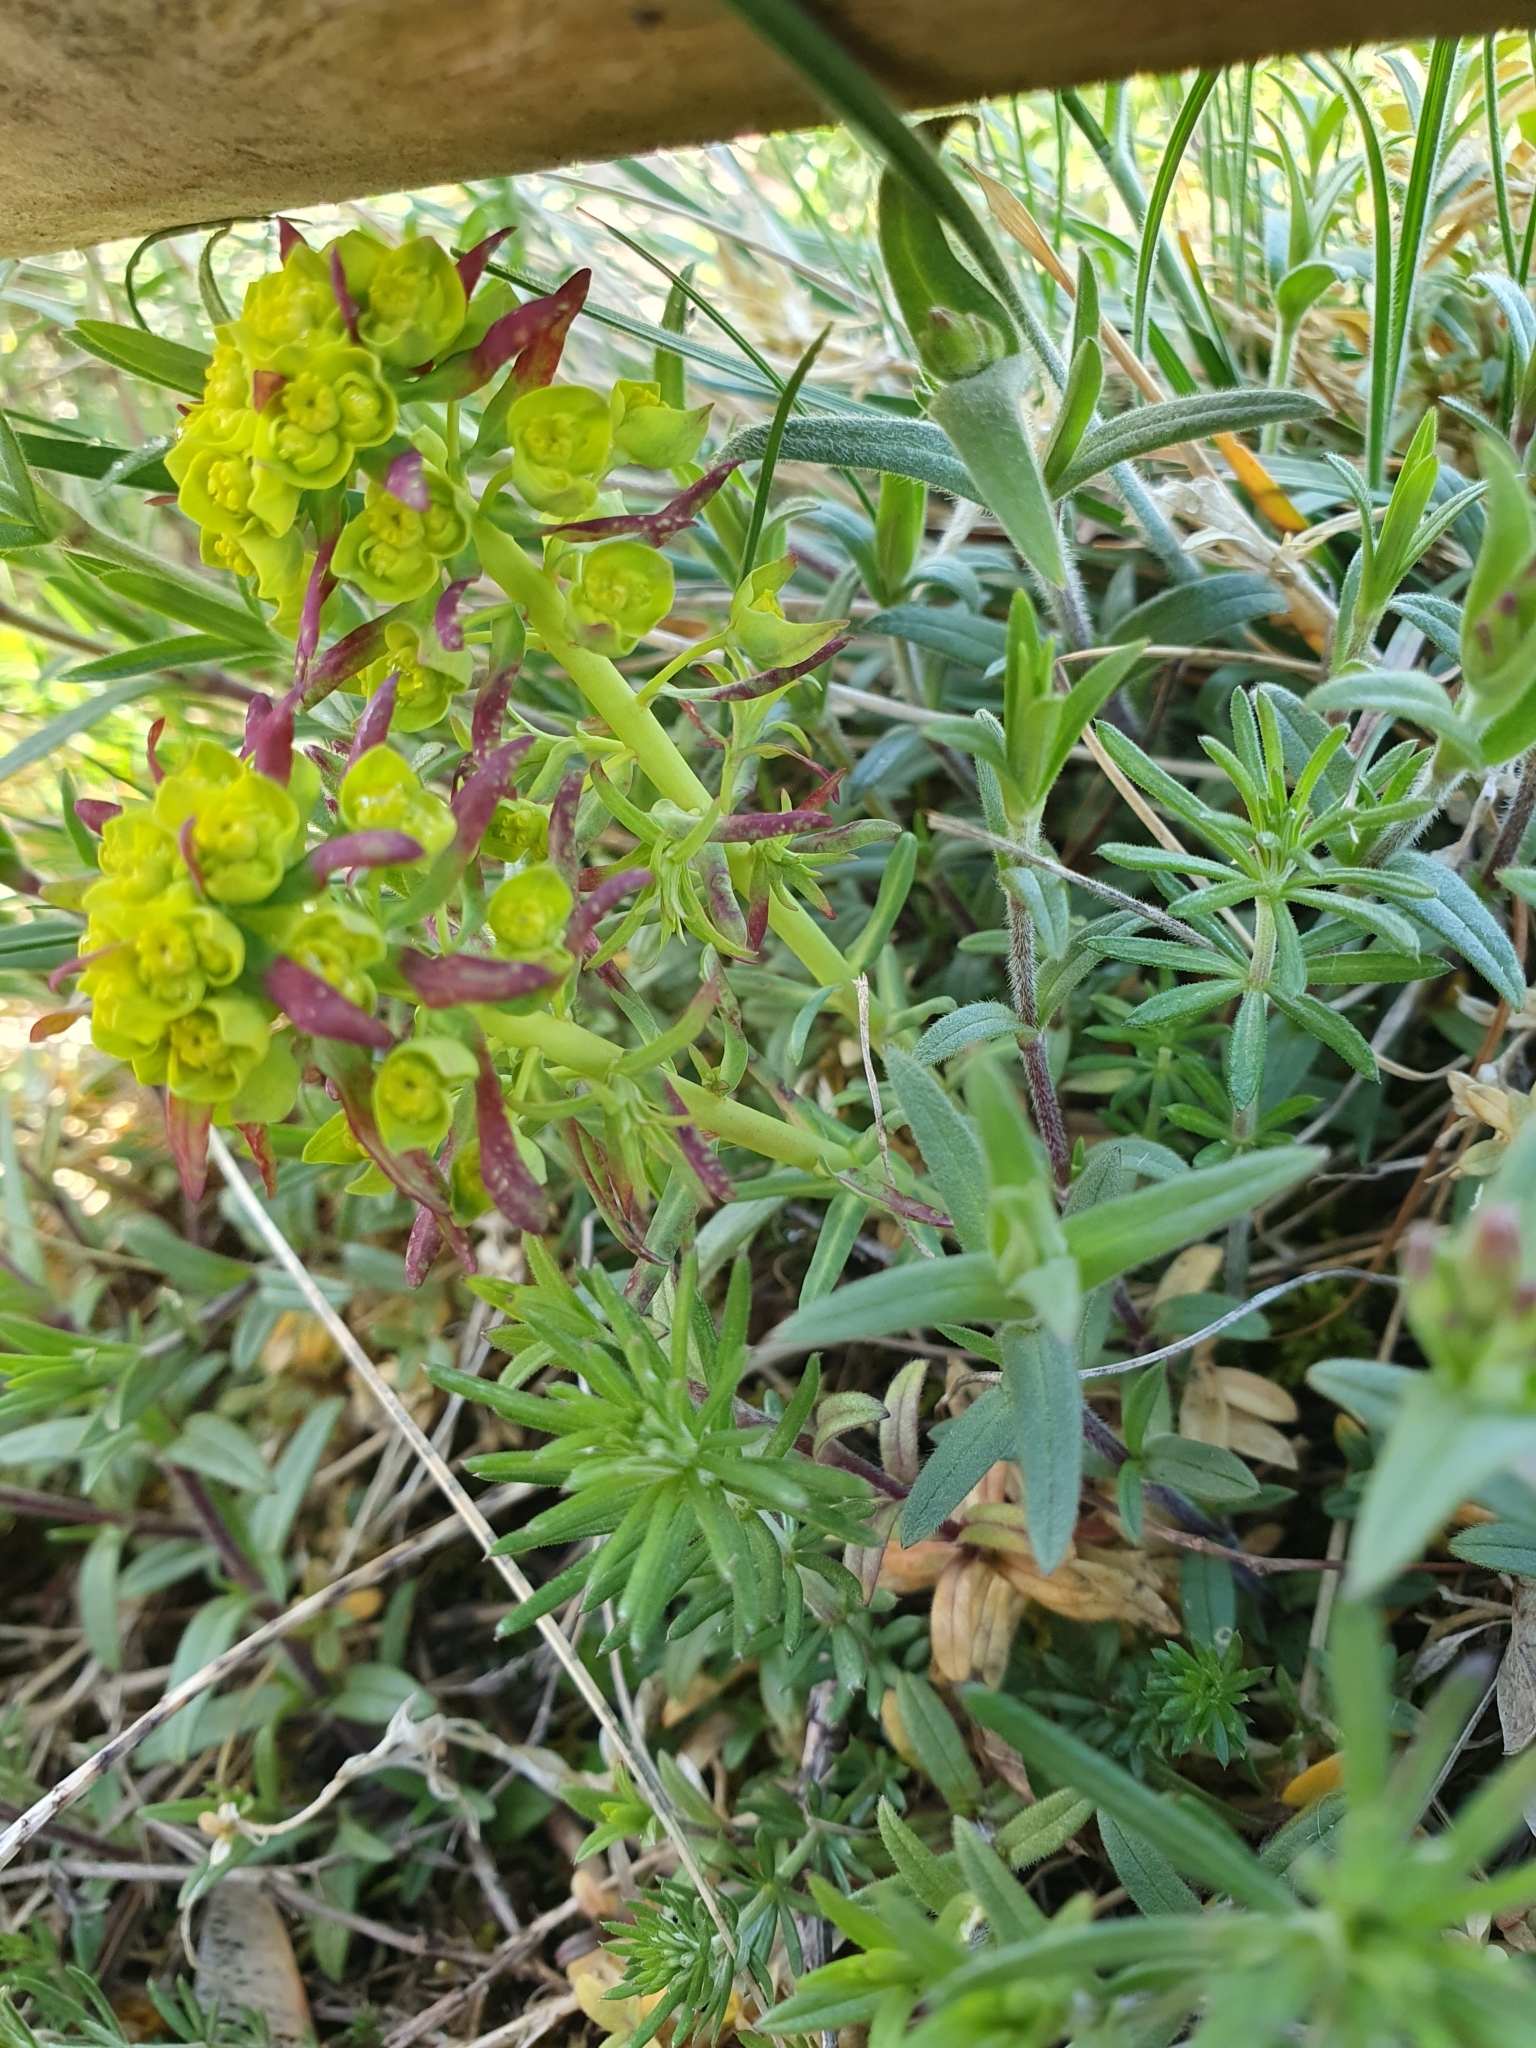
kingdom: Plantae
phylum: Tracheophyta
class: Magnoliopsida
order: Malpighiales
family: Euphorbiaceae
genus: Euphorbia
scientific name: Euphorbia cyparissias
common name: Cypress spurge
